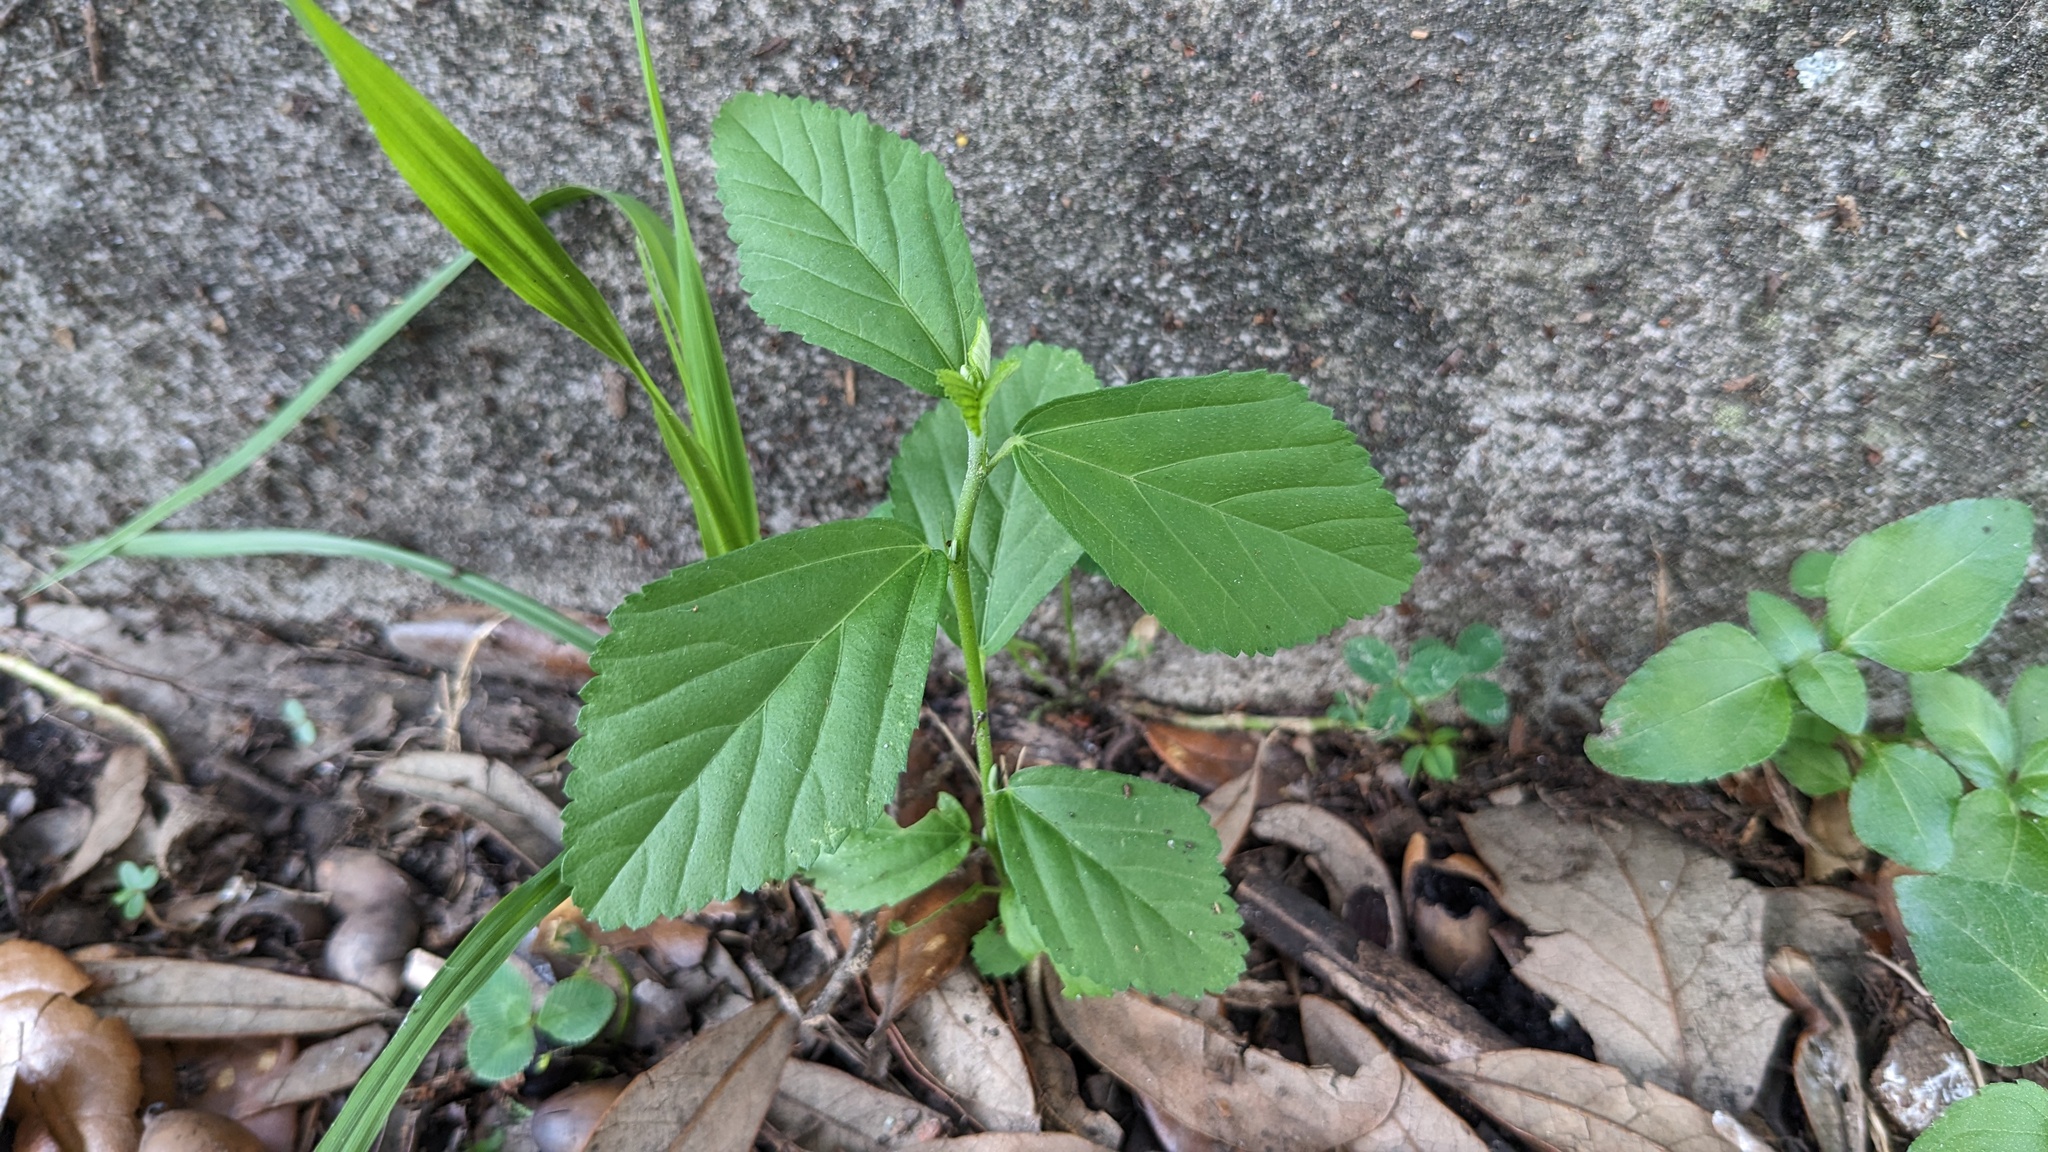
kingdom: Plantae
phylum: Tracheophyta
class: Magnoliopsida
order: Malvales
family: Malvaceae
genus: Sida
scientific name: Sida rhombifolia
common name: Queensland-hemp
